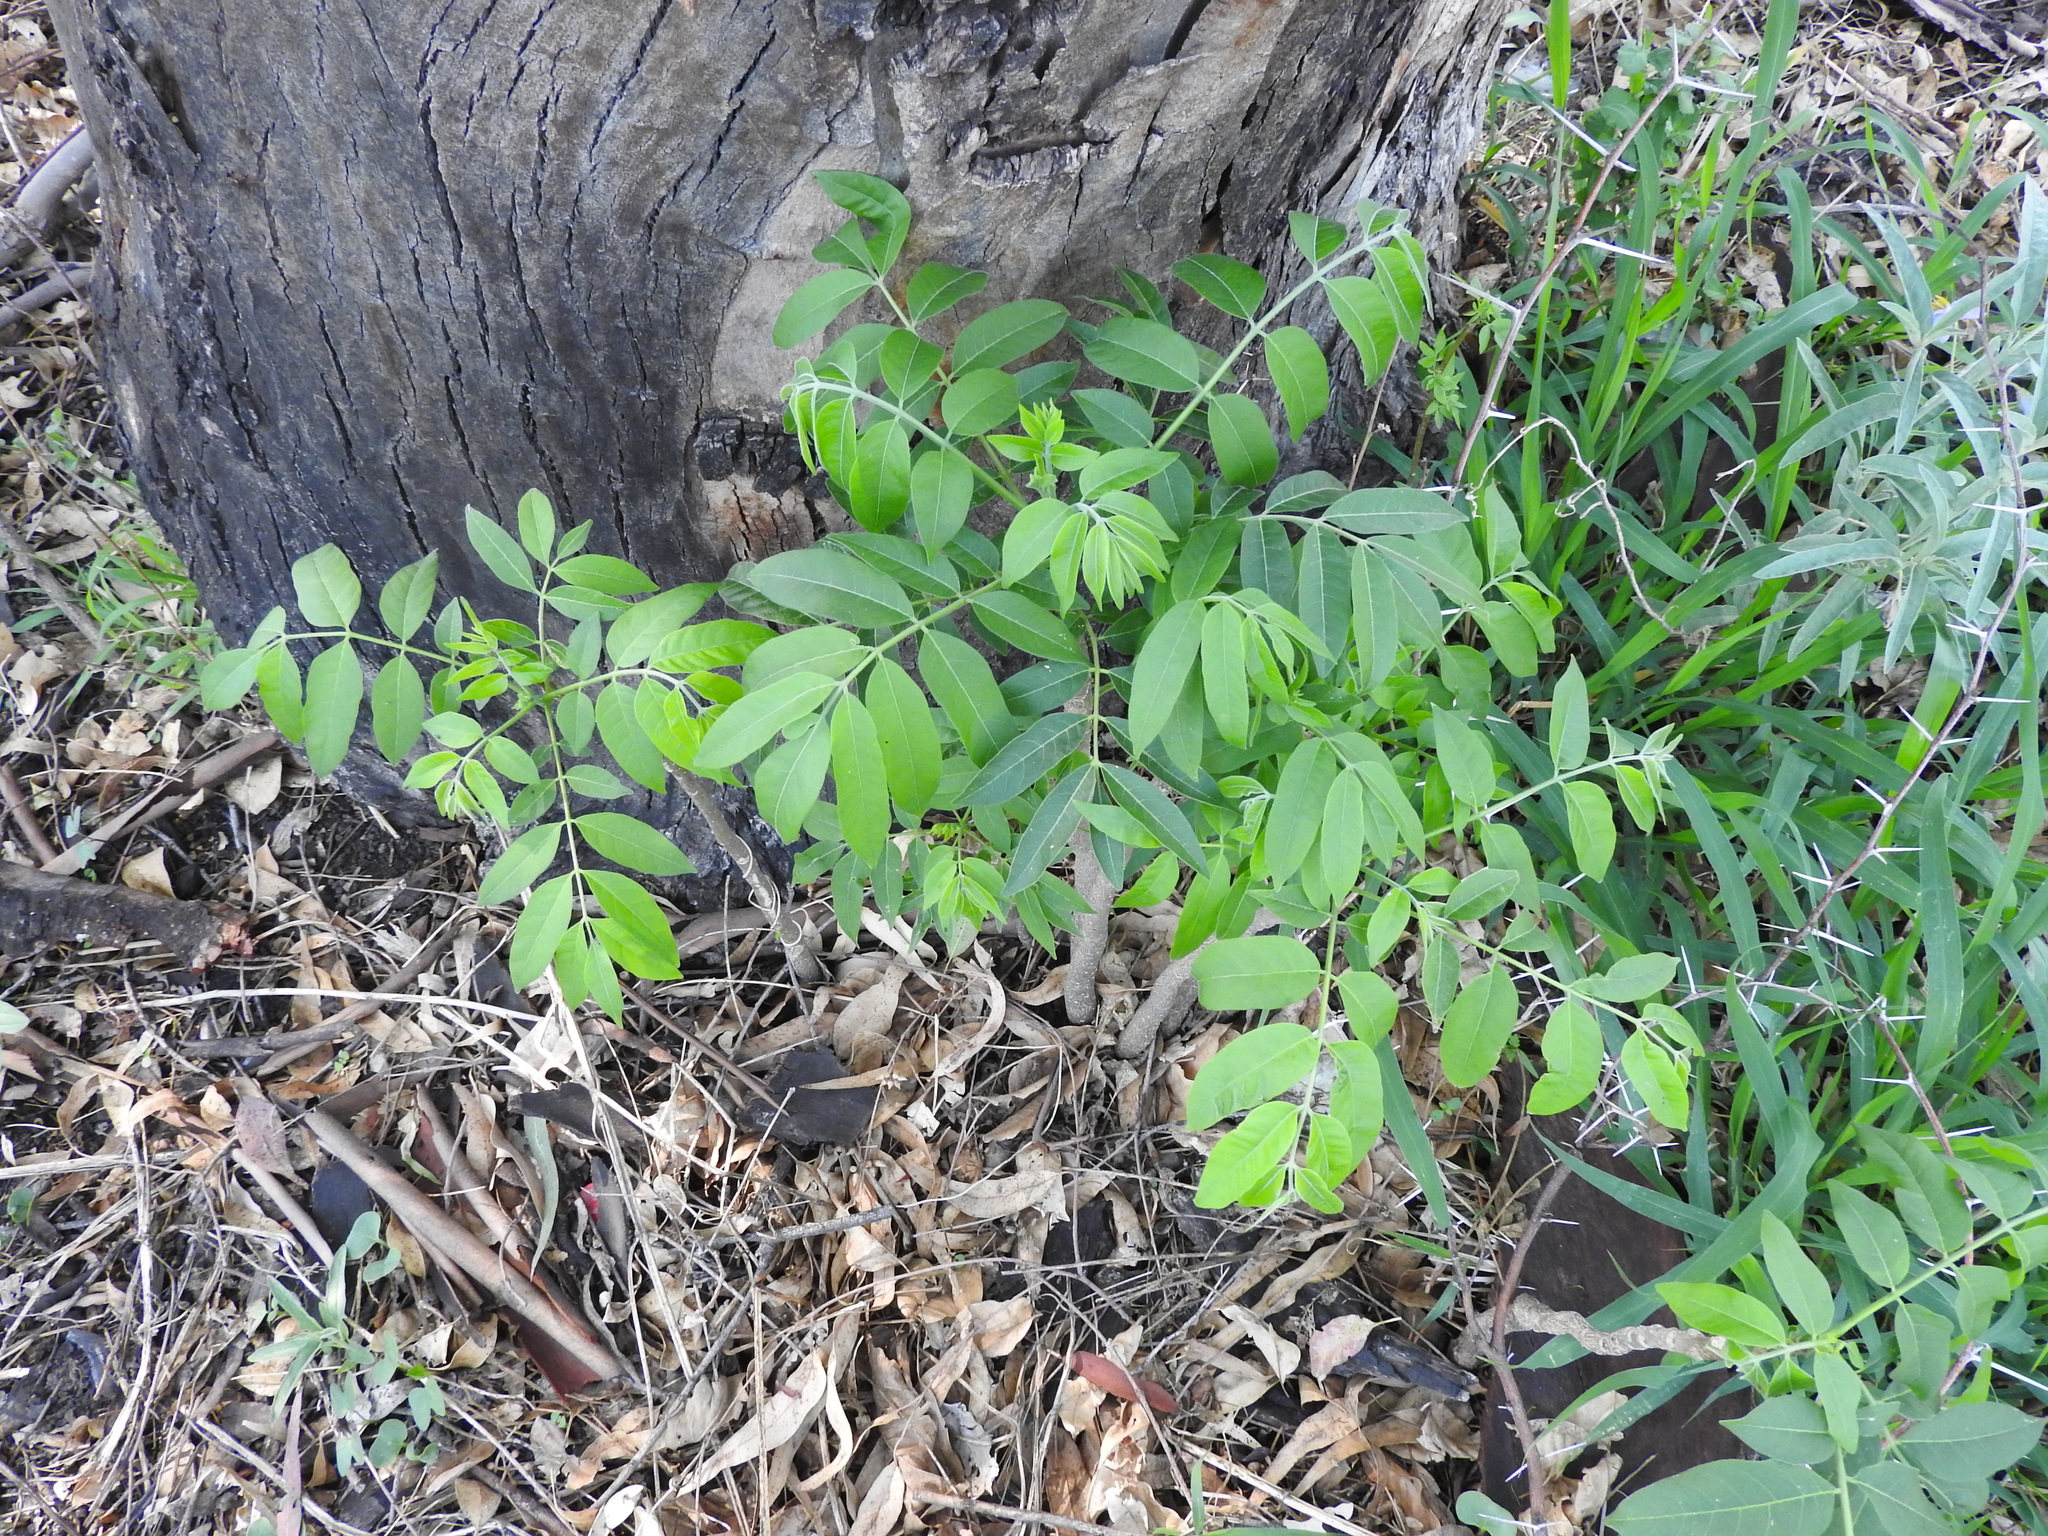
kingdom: Plantae
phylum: Tracheophyta
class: Magnoliopsida
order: Sapindales
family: Meliaceae
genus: Cedrela
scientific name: Cedrela odorata
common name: Red cedar
